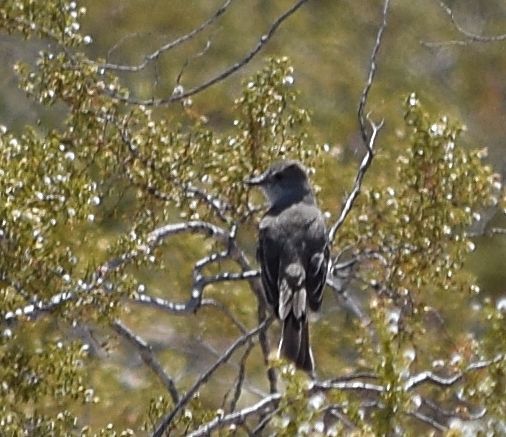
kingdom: Animalia
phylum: Chordata
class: Aves
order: Passeriformes
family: Tyrannidae
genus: Myiarchus
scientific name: Myiarchus cinerascens
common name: Ash-throated flycatcher
